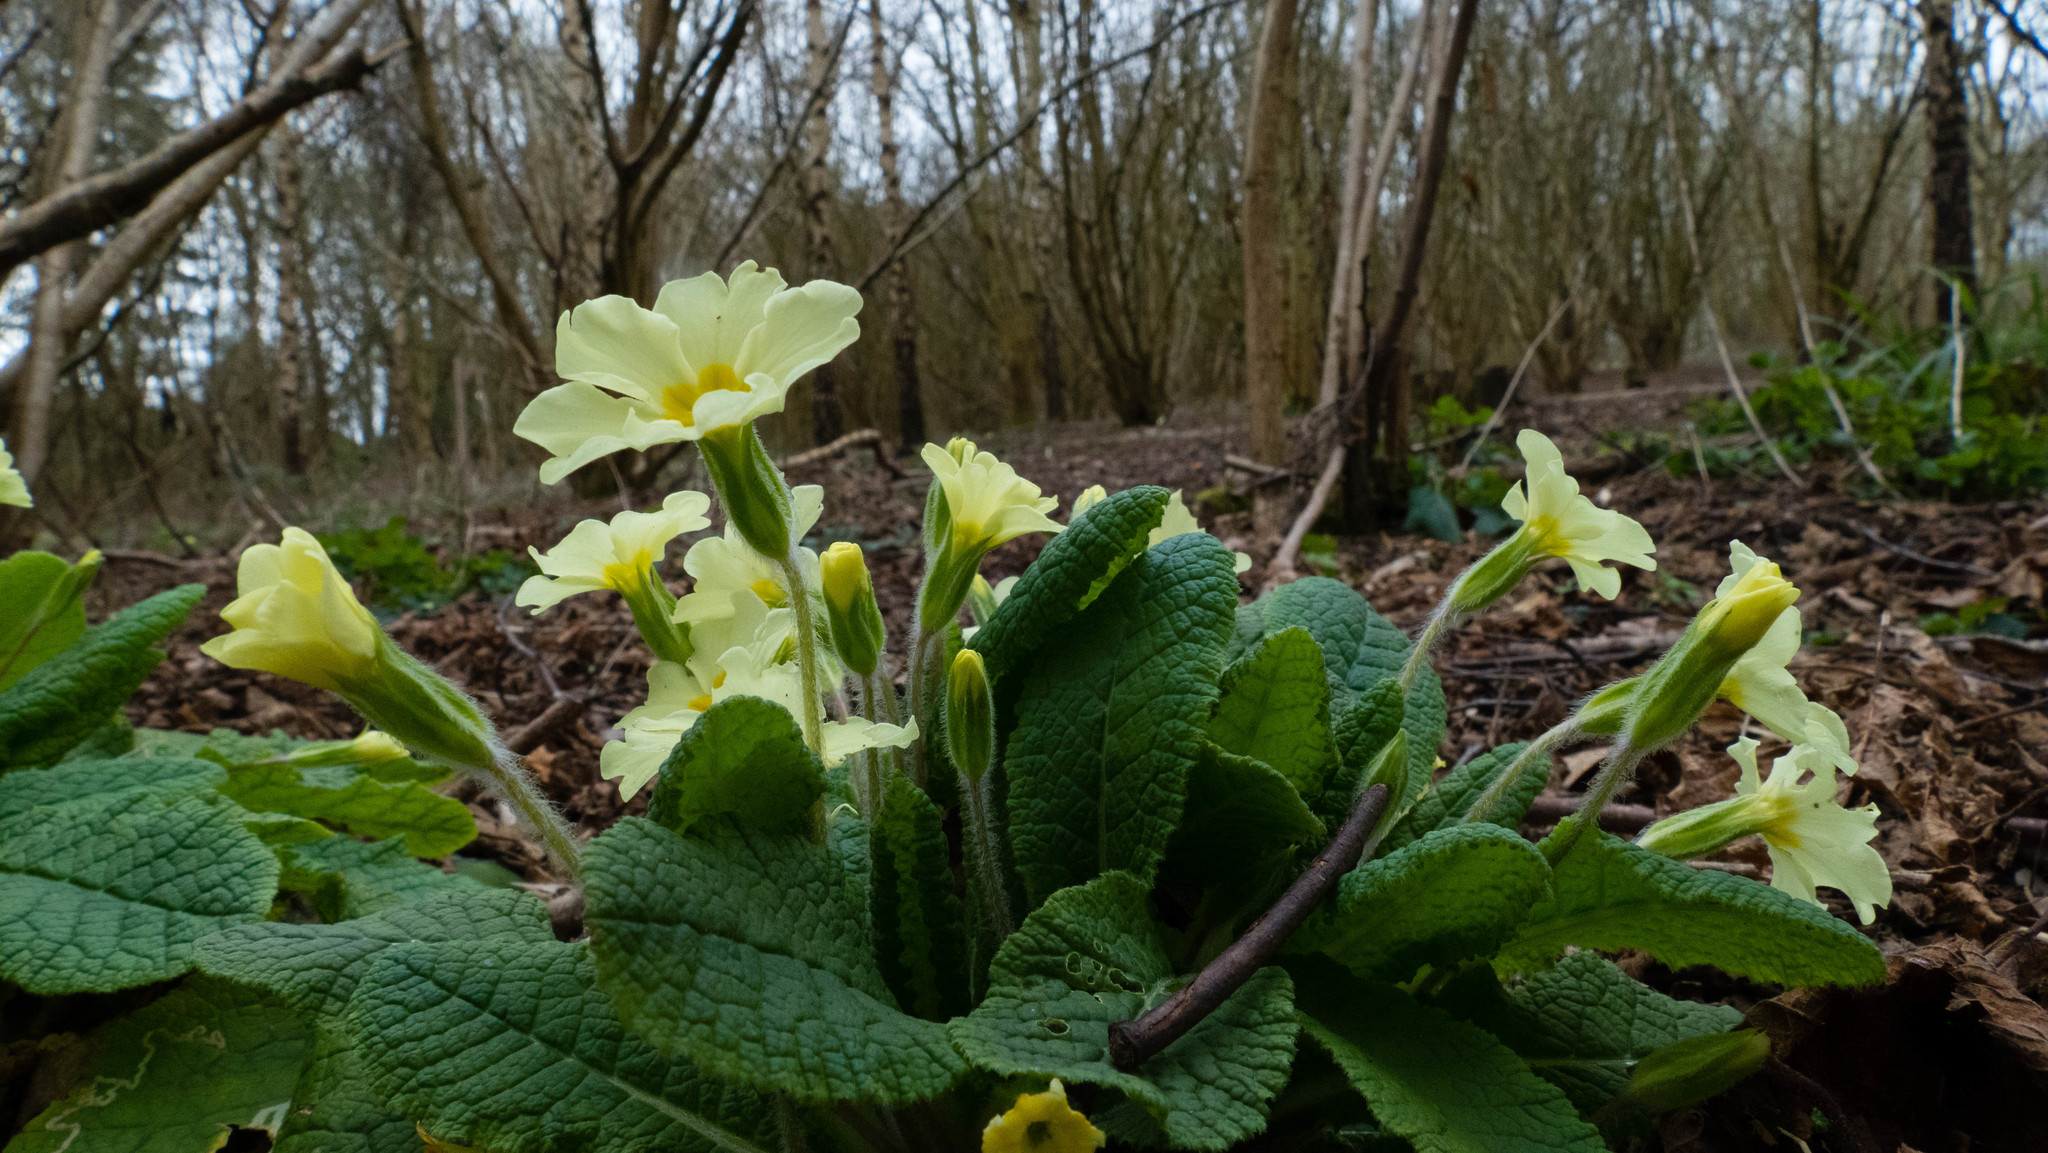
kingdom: Plantae
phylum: Tracheophyta
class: Magnoliopsida
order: Ericales
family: Primulaceae
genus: Primula
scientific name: Primula vulgaris
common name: Primrose
